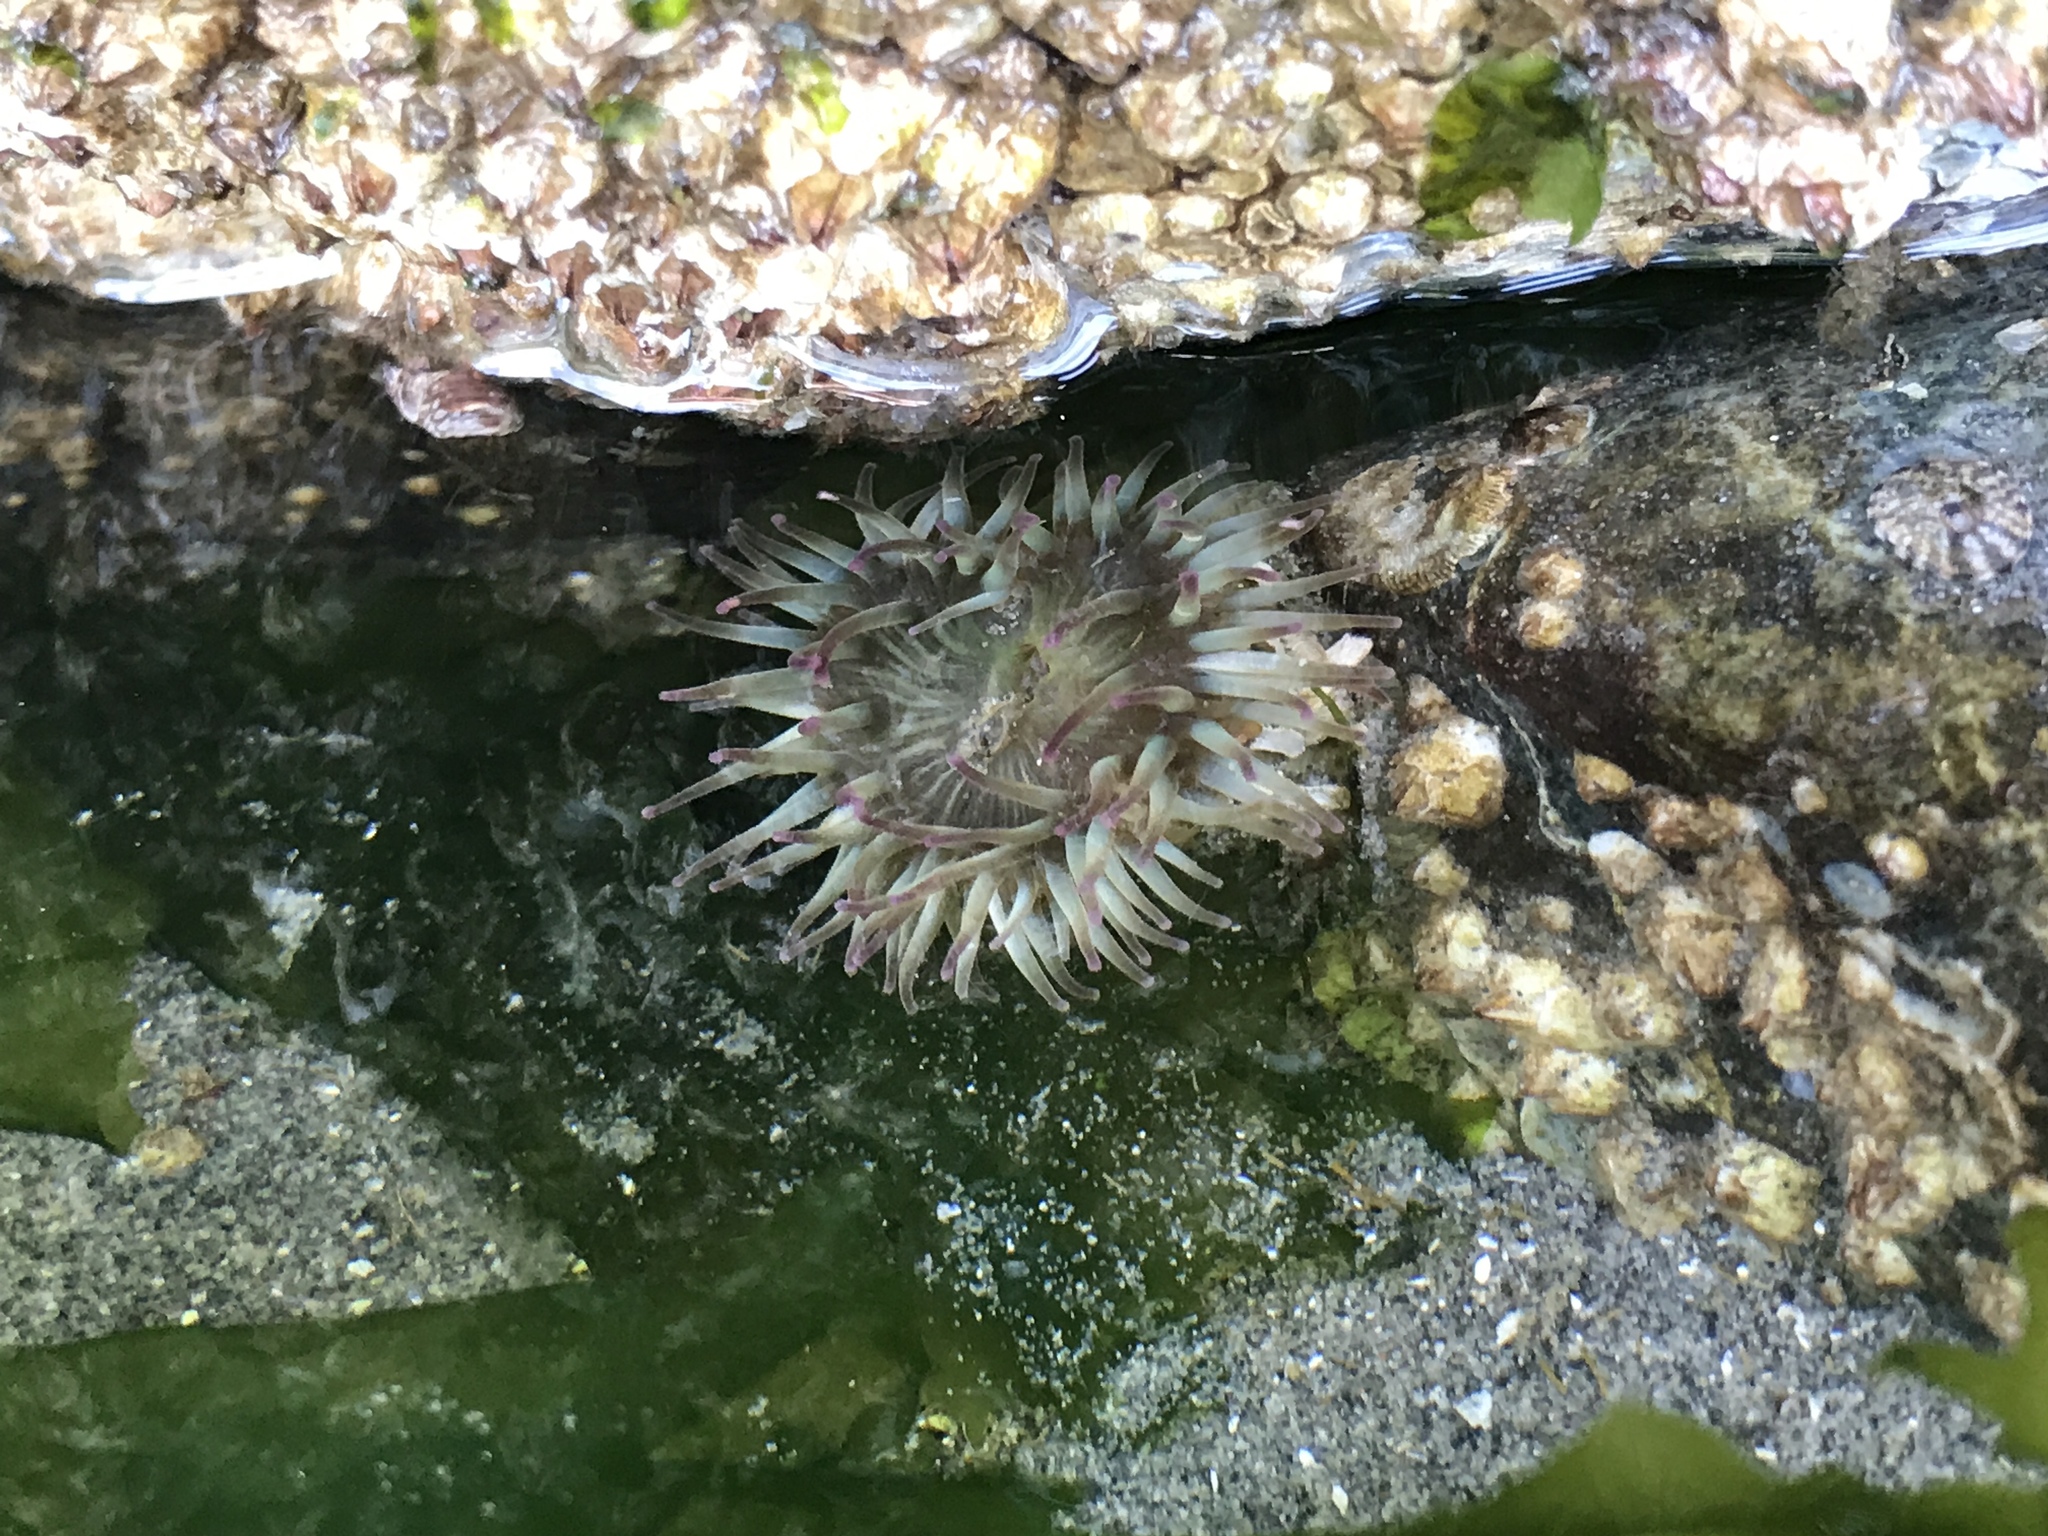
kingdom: Animalia
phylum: Cnidaria
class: Anthozoa
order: Actiniaria
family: Actiniidae
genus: Anthopleura
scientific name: Anthopleura elegantissima
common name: Clonal anemone
